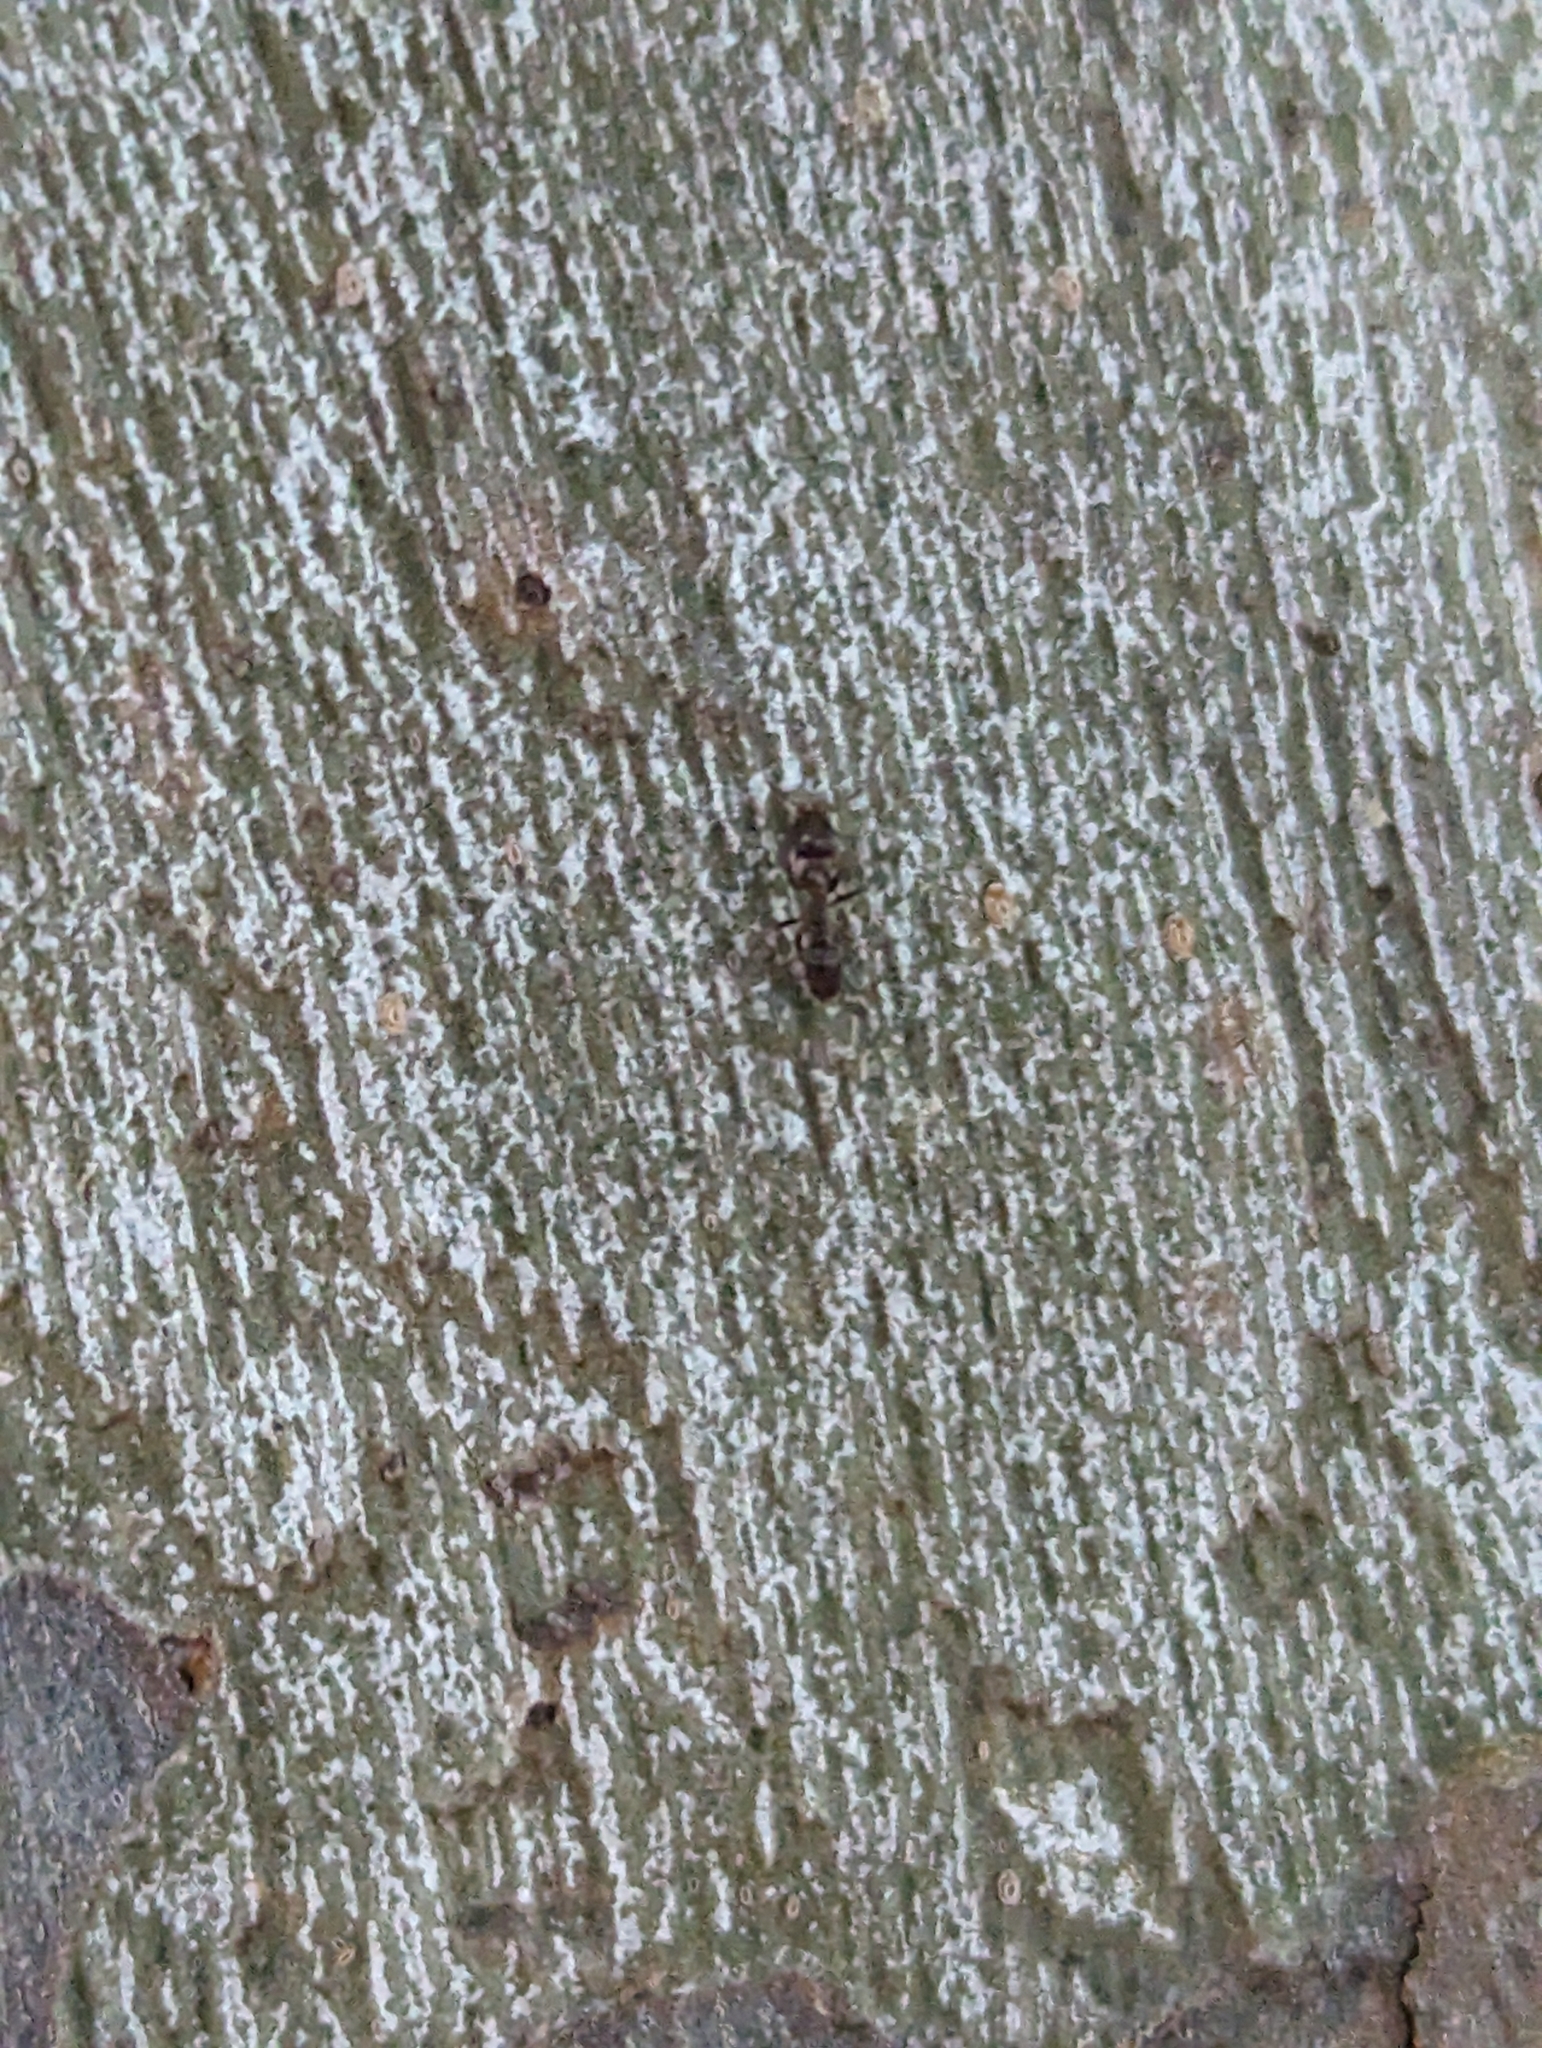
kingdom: Animalia
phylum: Arthropoda
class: Insecta
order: Hymenoptera
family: Formicidae
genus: Linepithema
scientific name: Linepithema humile
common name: Argentine ant
